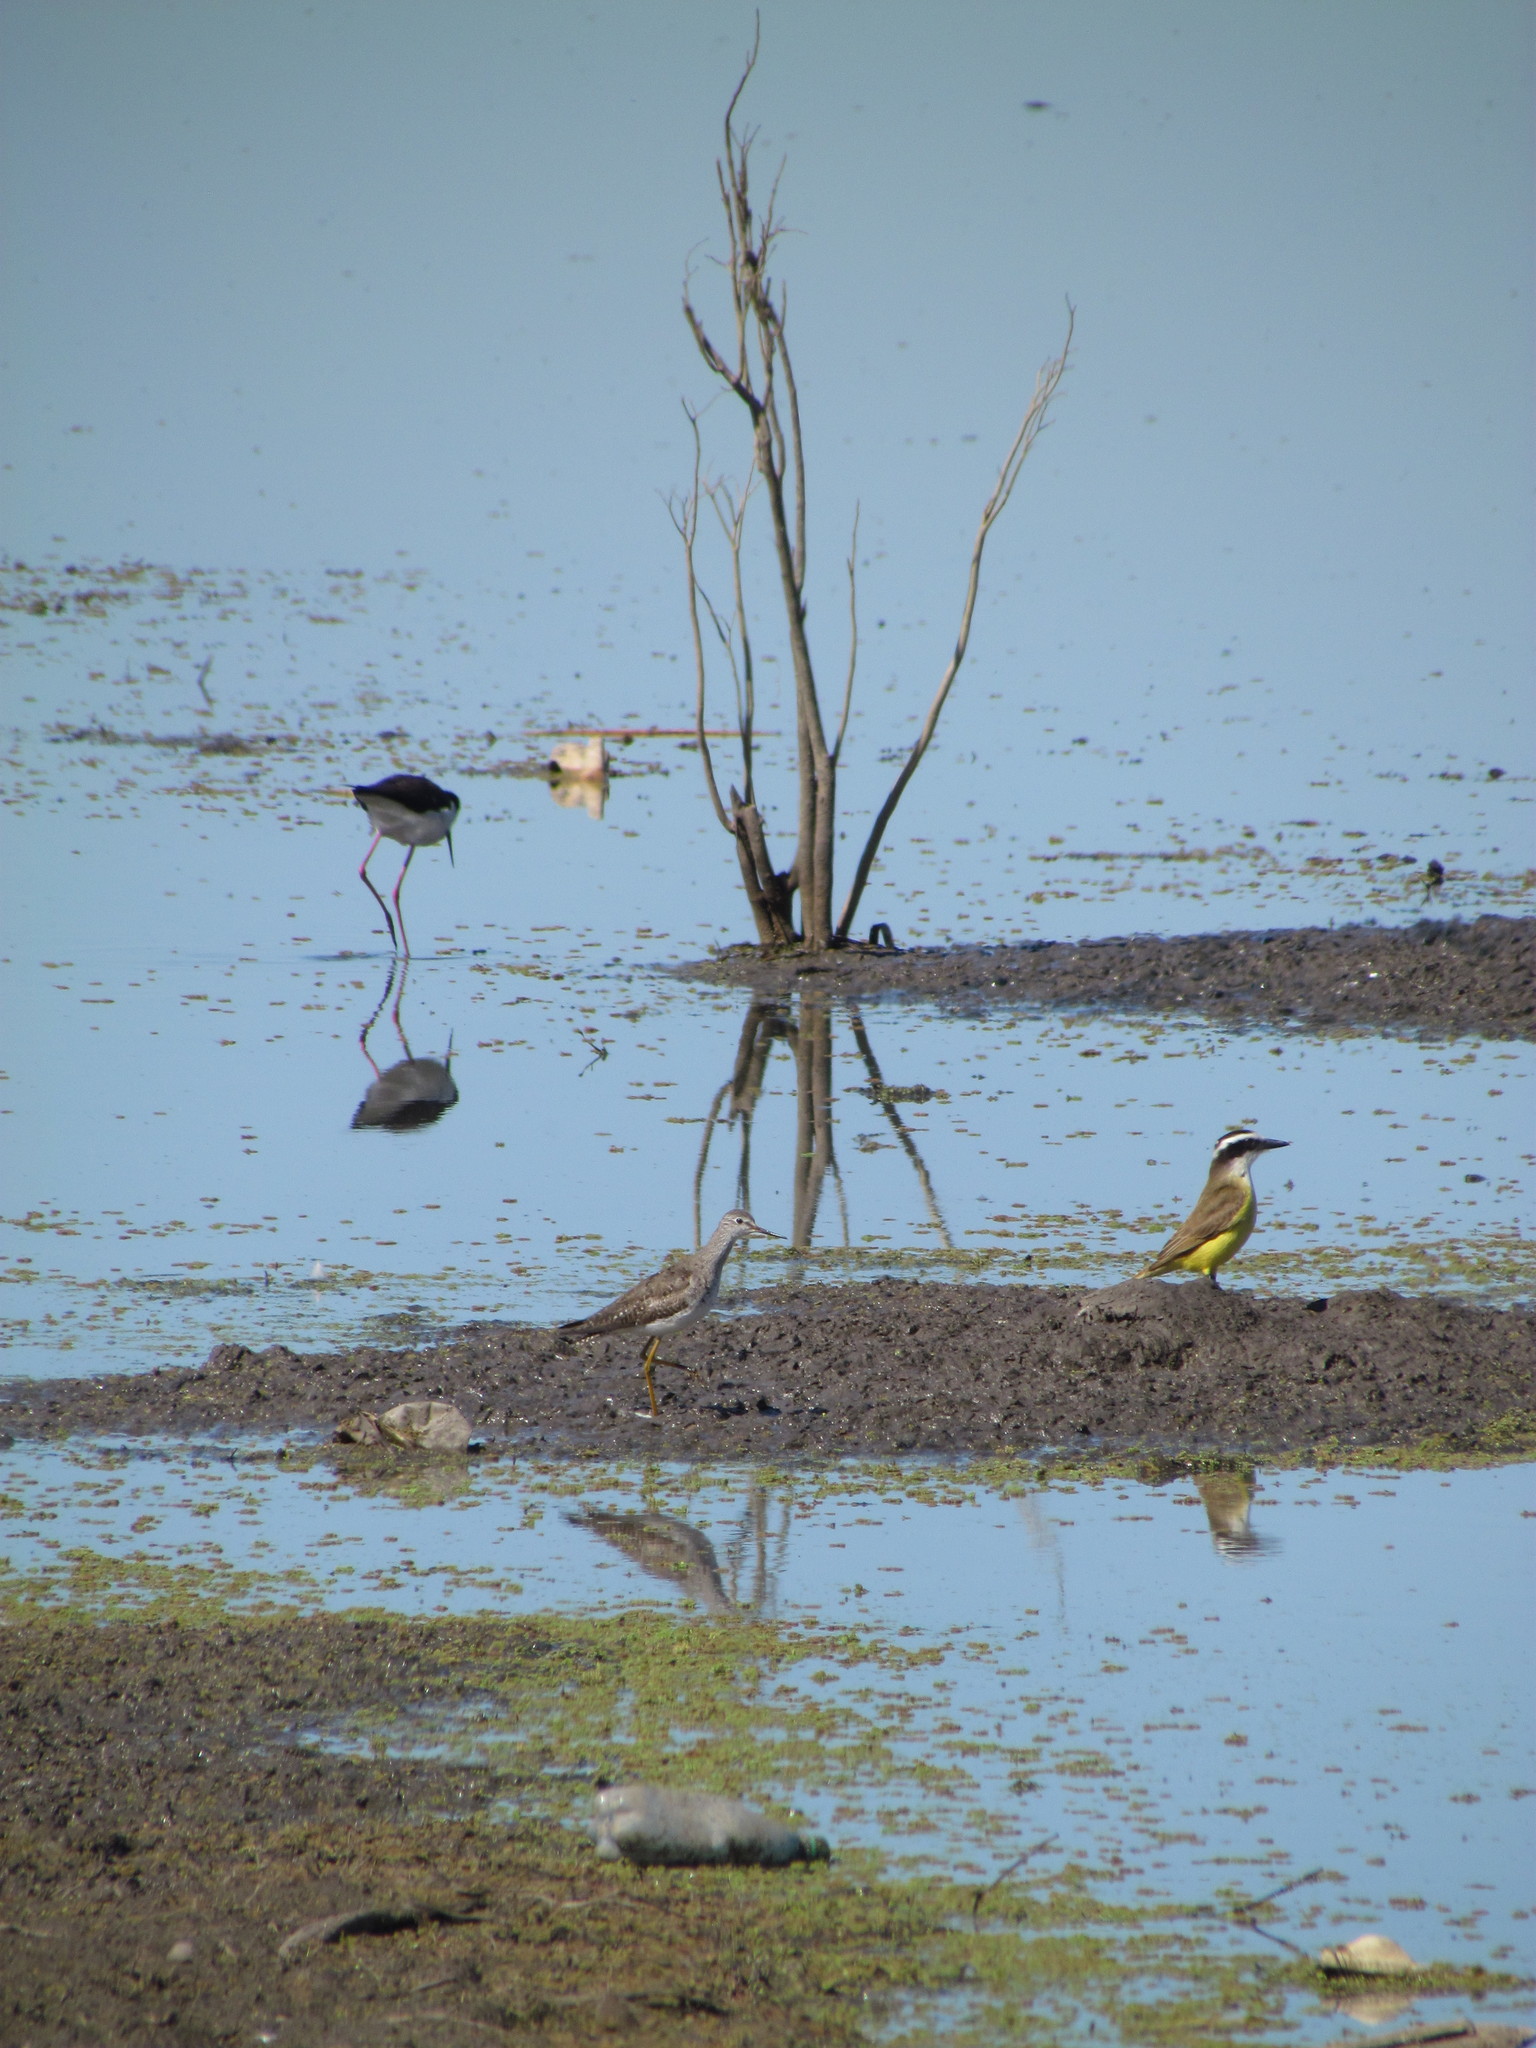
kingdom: Animalia
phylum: Chordata
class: Aves
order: Charadriiformes
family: Scolopacidae
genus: Tringa
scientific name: Tringa flavipes
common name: Lesser yellowlegs
